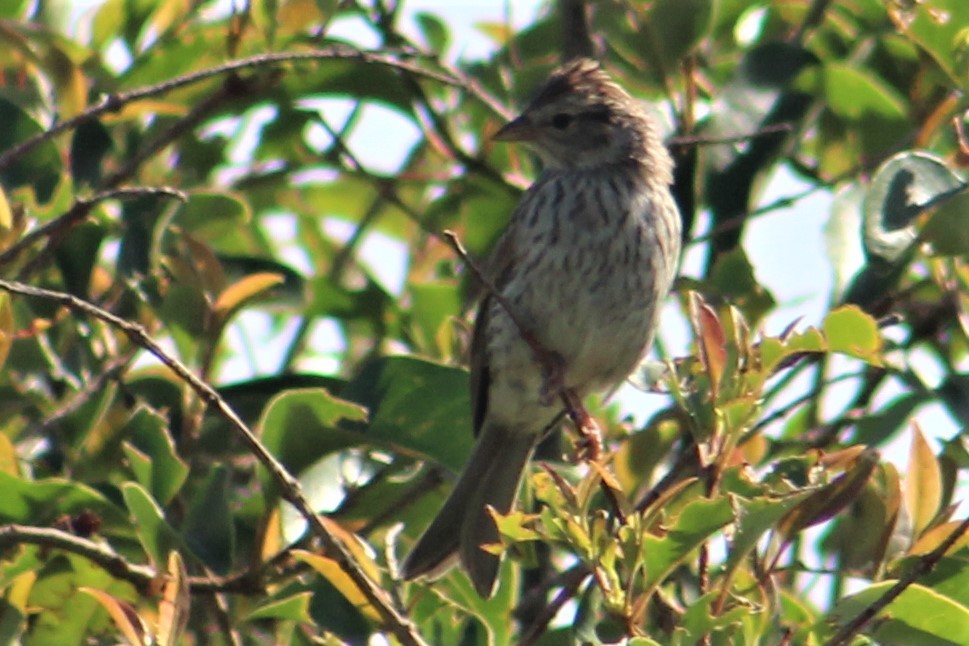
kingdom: Animalia
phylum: Chordata
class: Aves
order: Passeriformes
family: Passerellidae
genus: Spizella
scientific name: Spizella passerina
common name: Chipping sparrow
